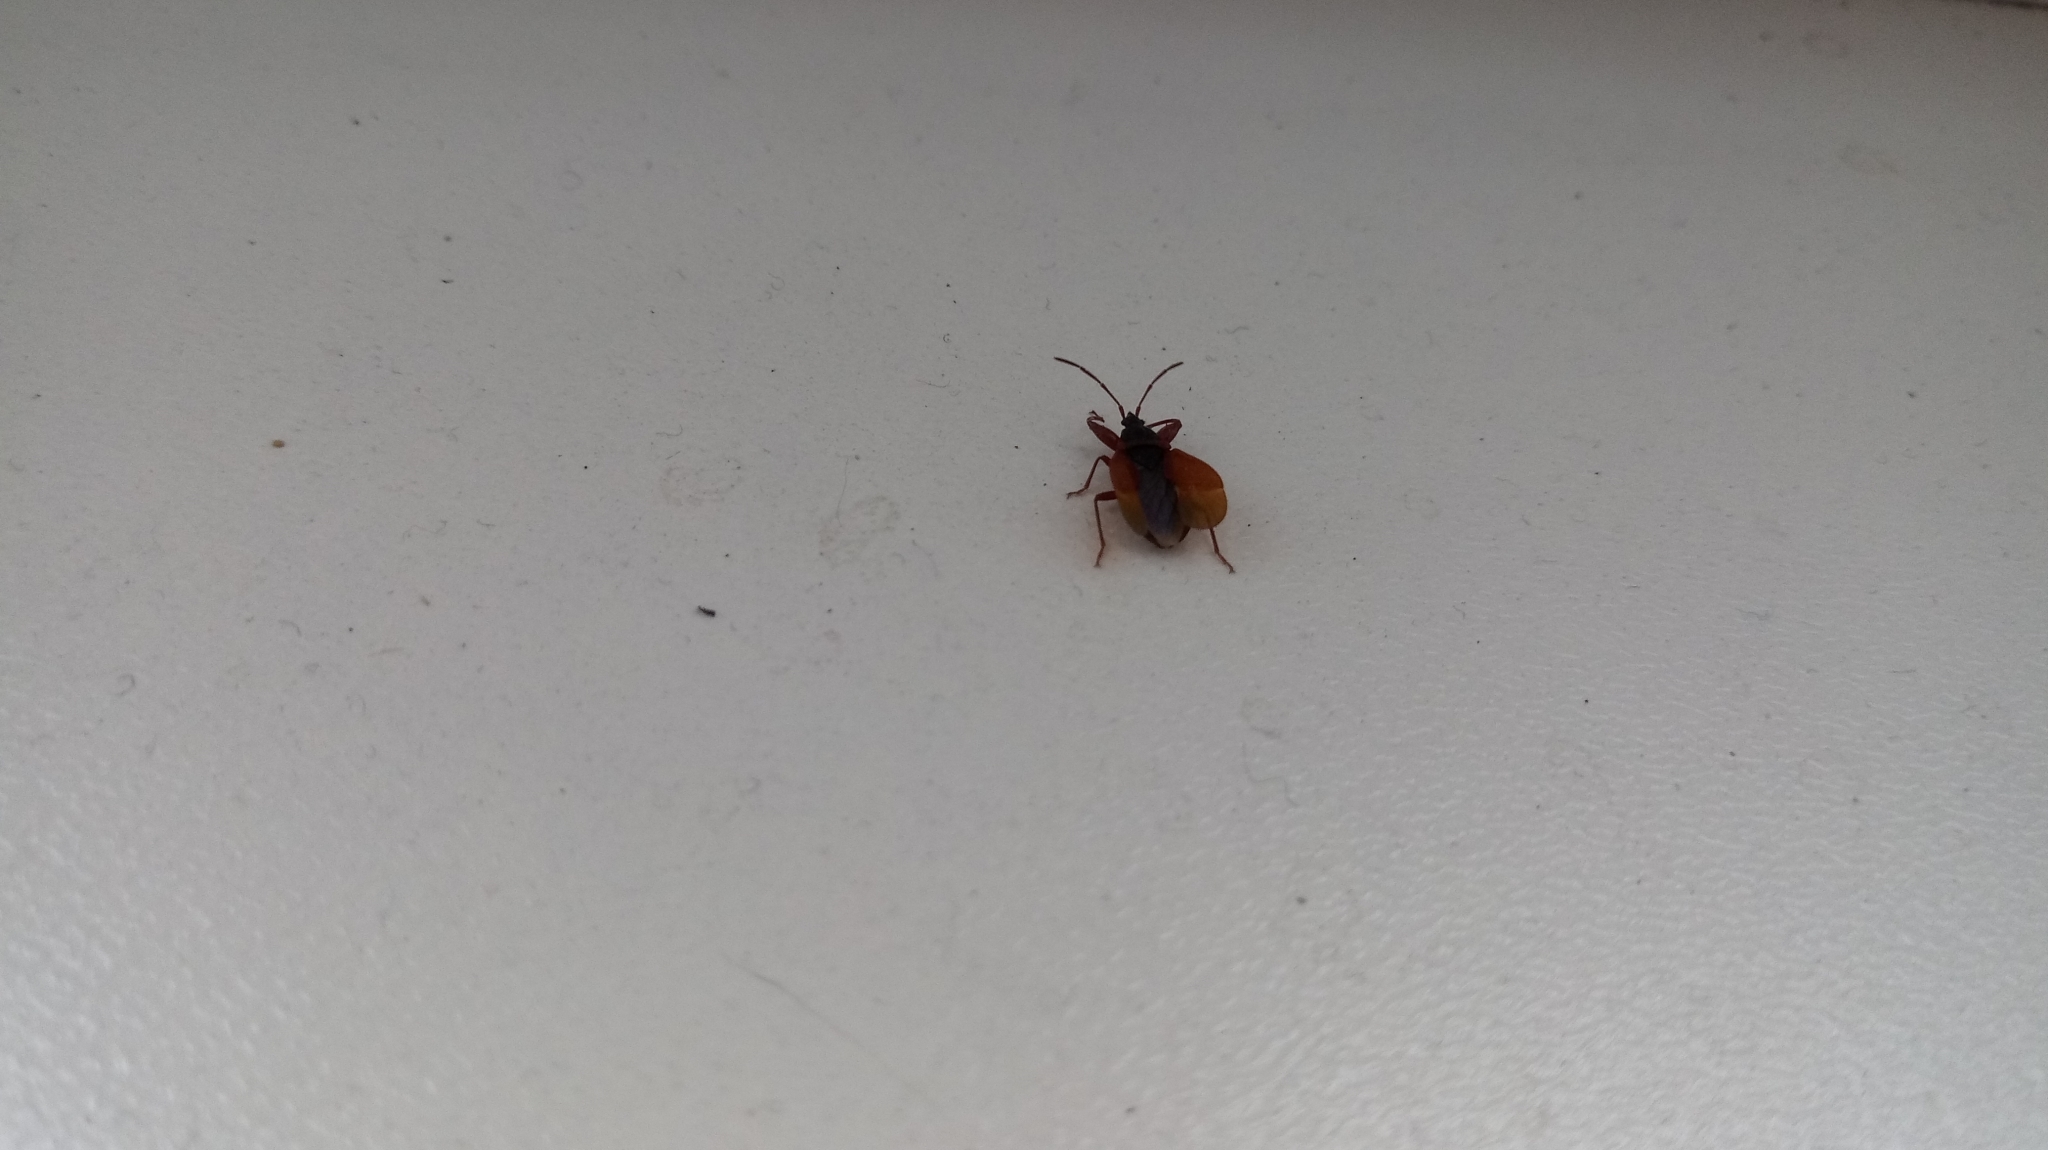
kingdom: Animalia
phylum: Arthropoda
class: Insecta
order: Hemiptera
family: Rhyparochromidae
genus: Gastrodes
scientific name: Gastrodes grossipes
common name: Pine cone bug
